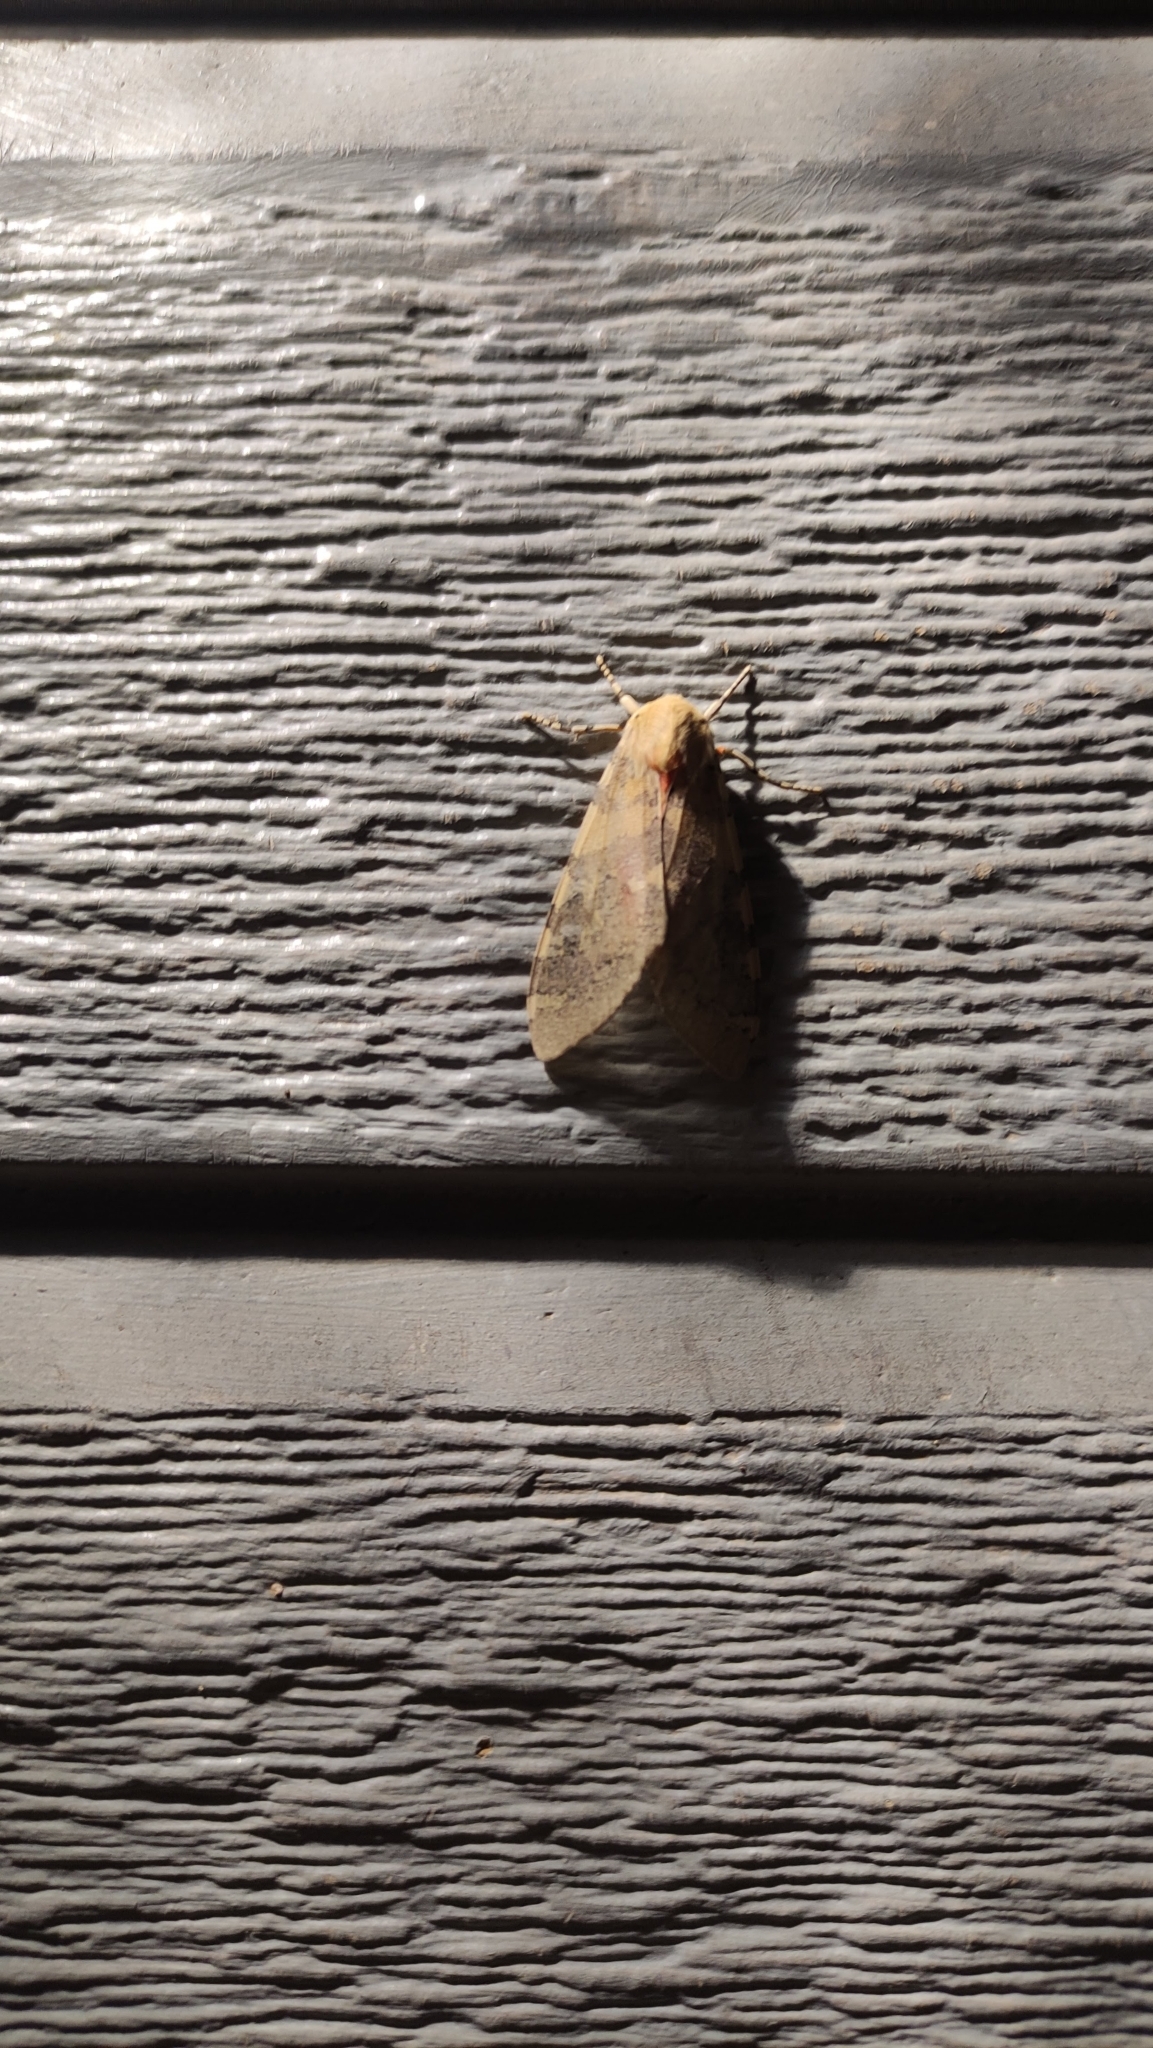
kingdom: Animalia
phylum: Arthropoda
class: Insecta
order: Lepidoptera
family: Erebidae
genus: Hemihyalea
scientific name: Hemihyalea edwardsii
